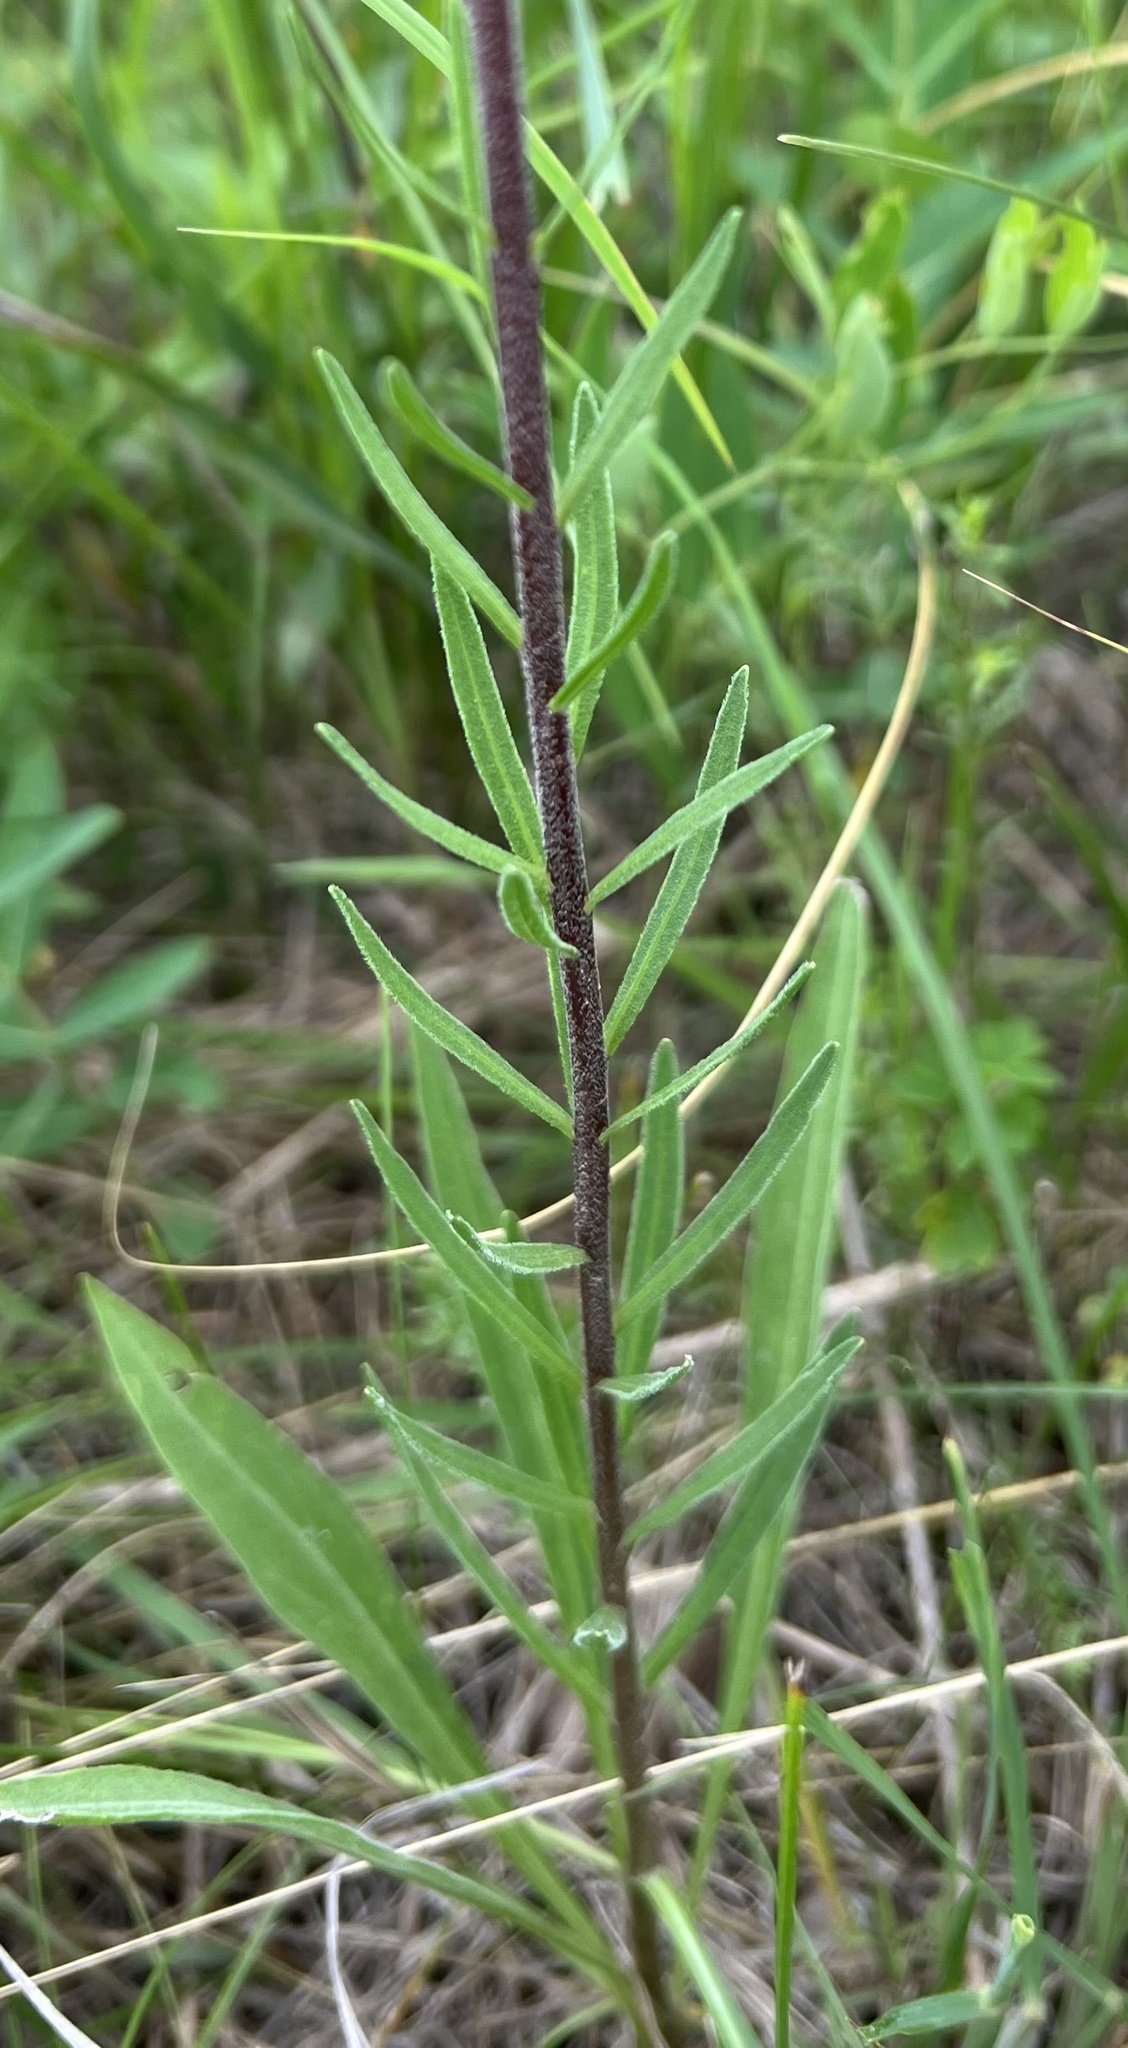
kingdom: Plantae
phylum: Tracheophyta
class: Magnoliopsida
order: Asterales
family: Asteraceae
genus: Liatris
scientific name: Liatris aspera
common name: Lacerate blazing-star
